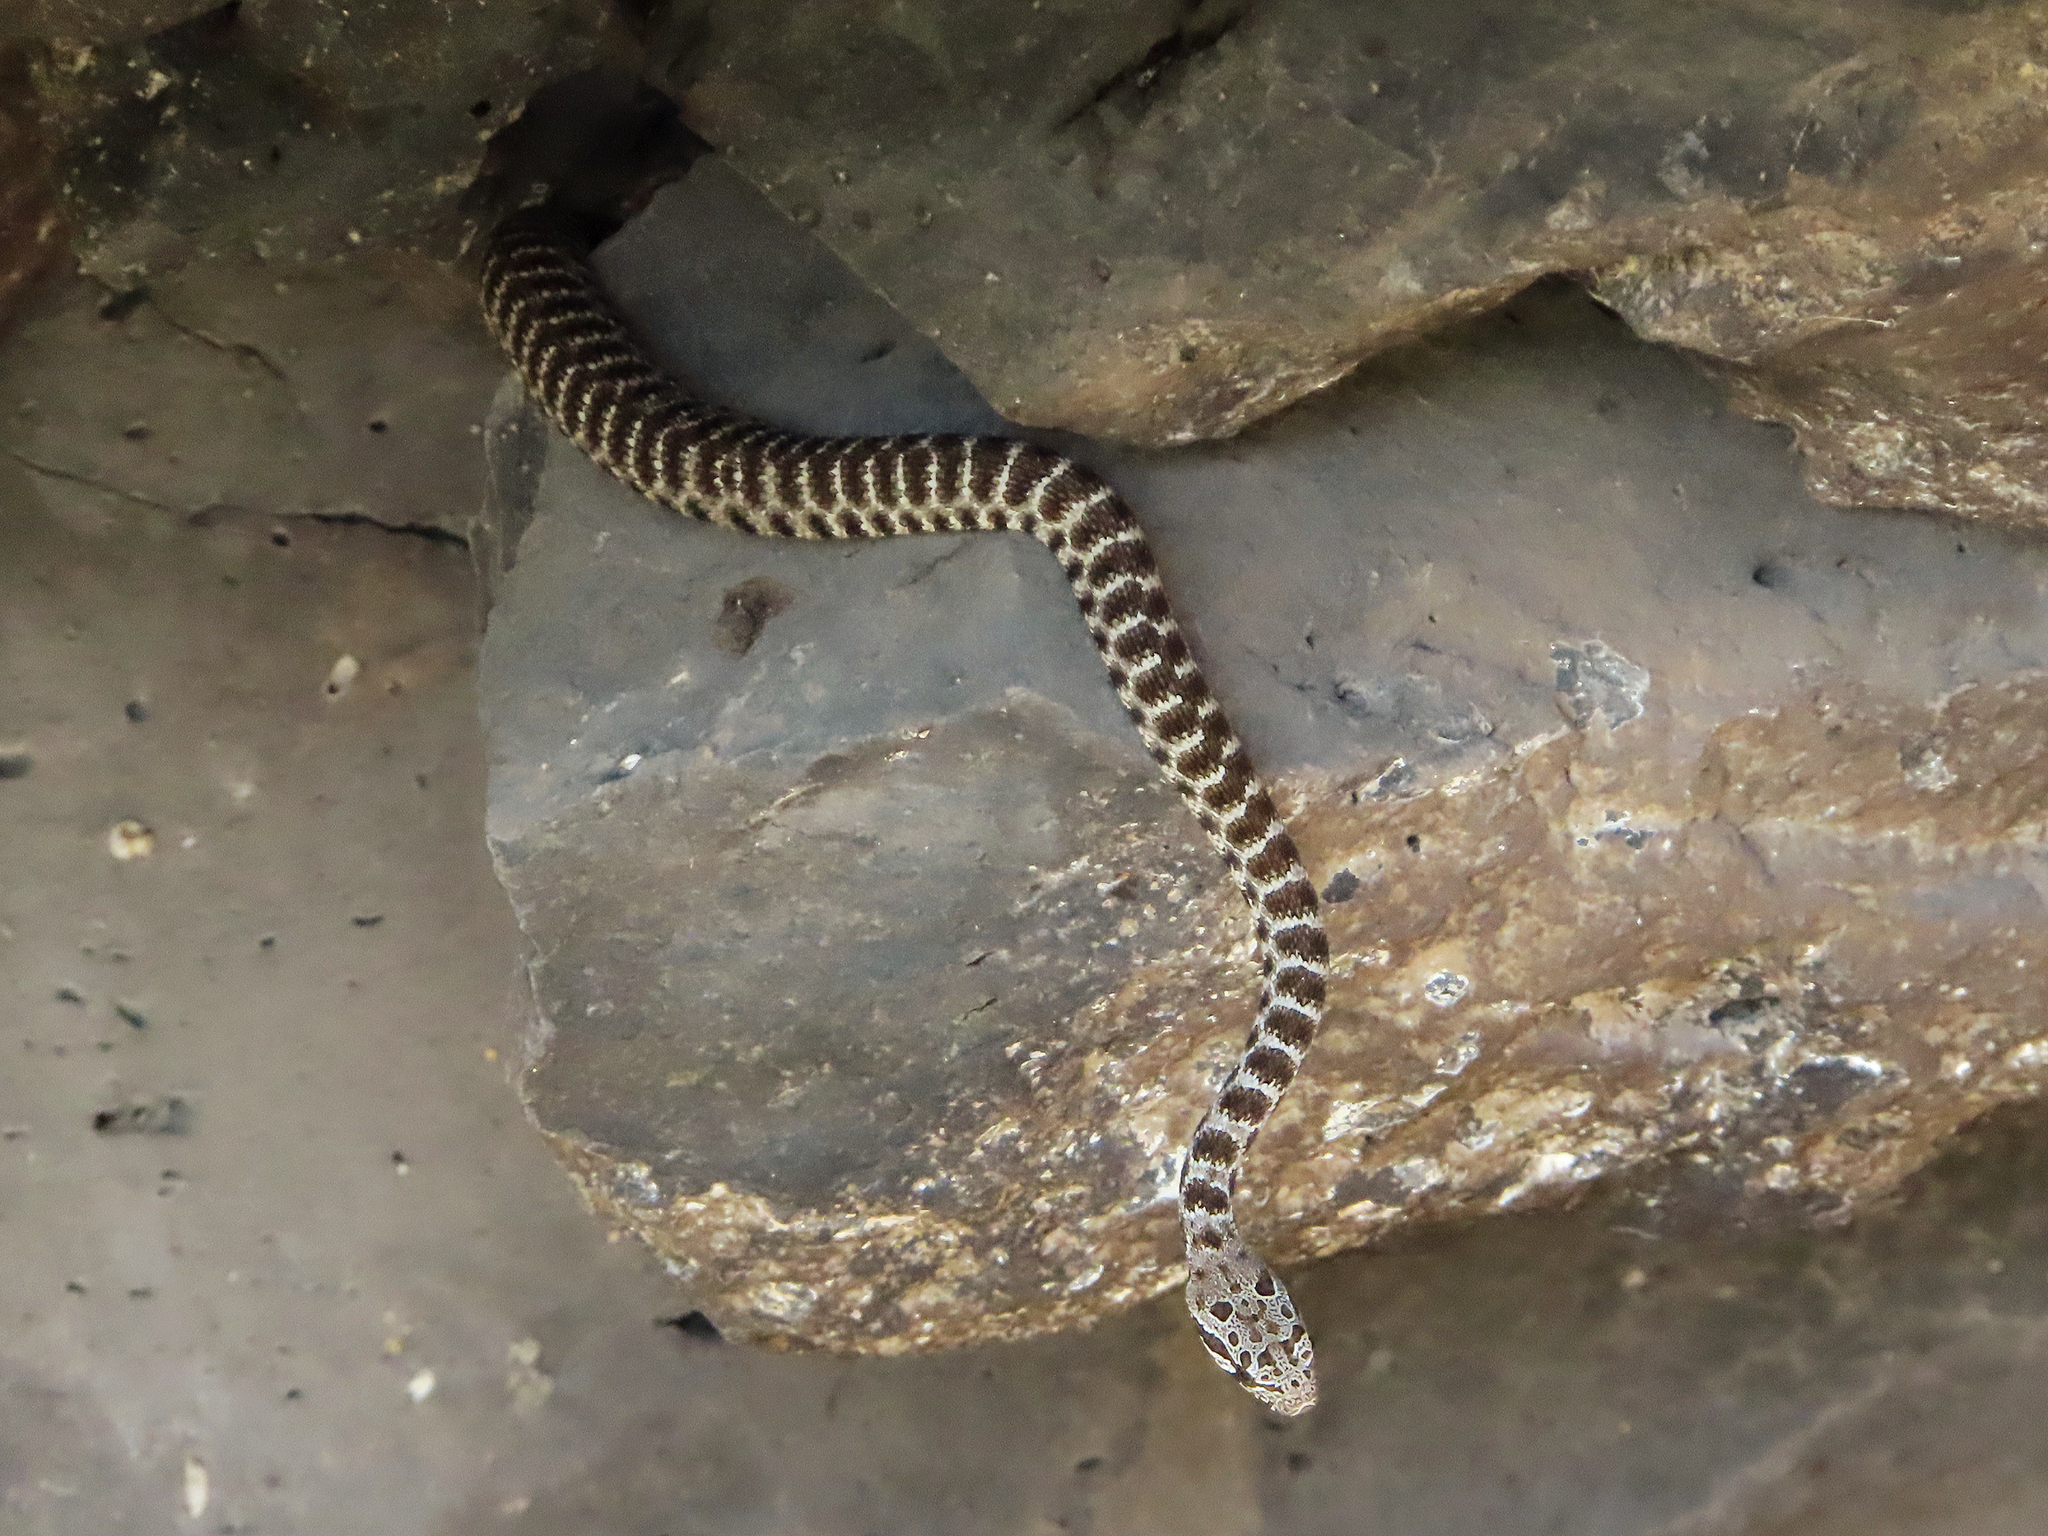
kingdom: Animalia
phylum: Chordata
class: Squamata
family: Colubridae
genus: Hemorrhois
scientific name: Hemorrhois nummifer
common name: Asian racer
